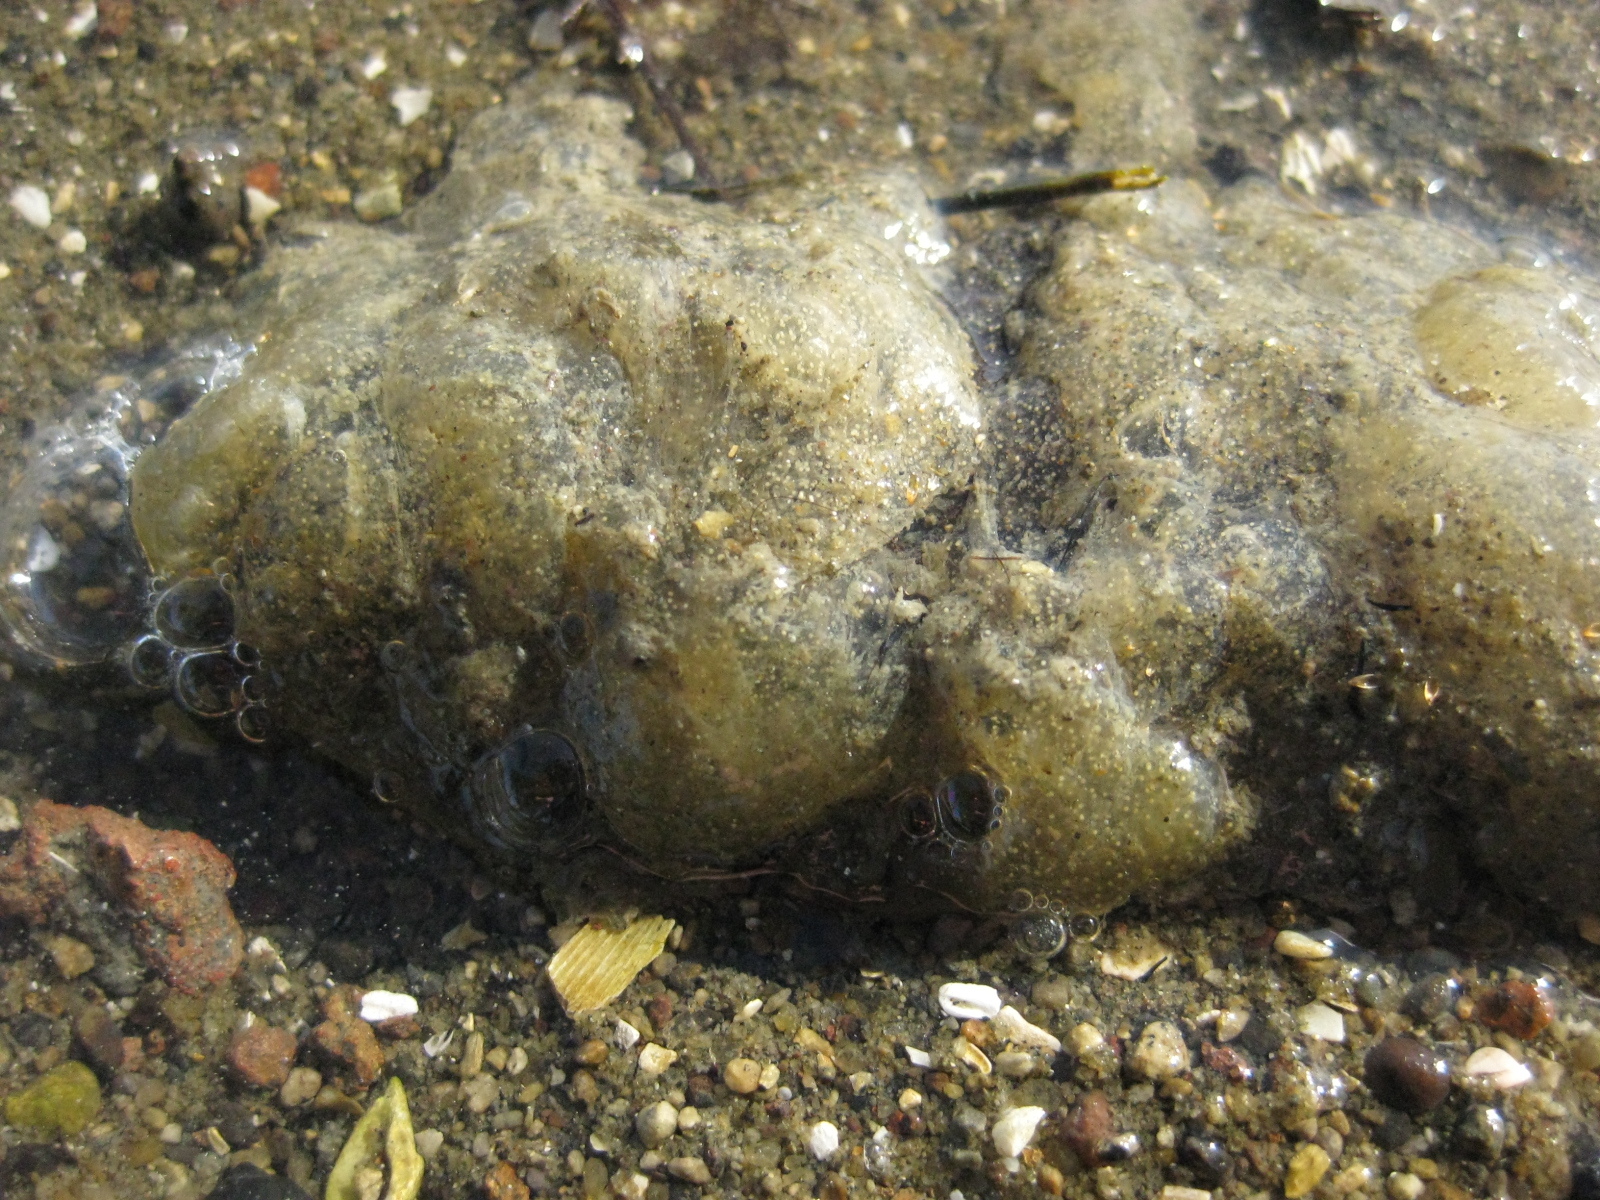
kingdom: Animalia
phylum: Mollusca
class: Gastropoda
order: Cephalaspidea
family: Haminoeidae
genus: Papawera
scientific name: Papawera zelandiae
